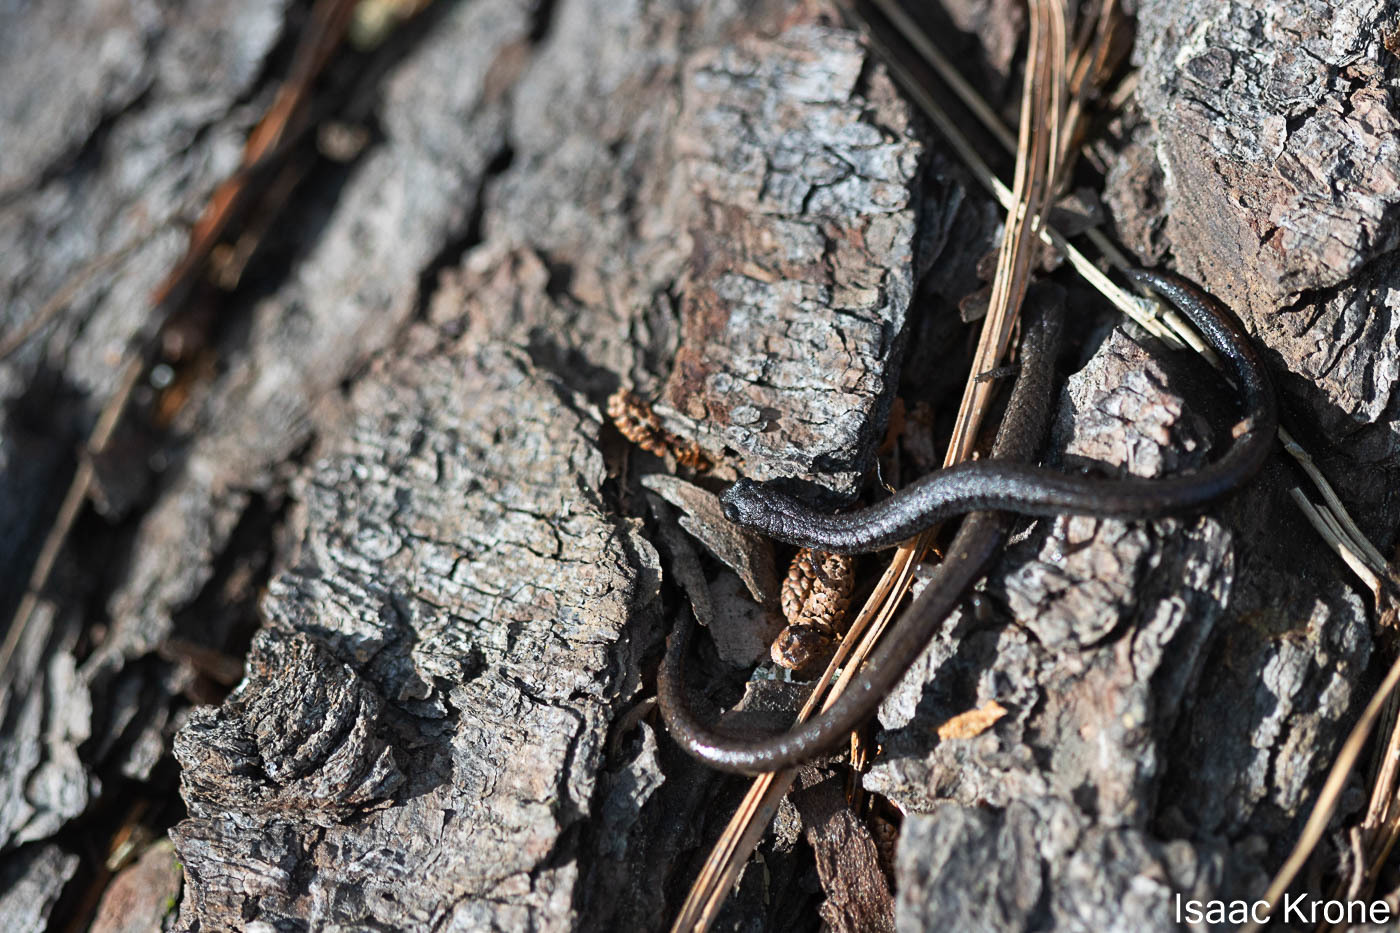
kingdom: Animalia
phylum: Chordata
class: Amphibia
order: Caudata
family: Plethodontidae
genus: Batrachoseps
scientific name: Batrachoseps attenuatus
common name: California slender salamander
